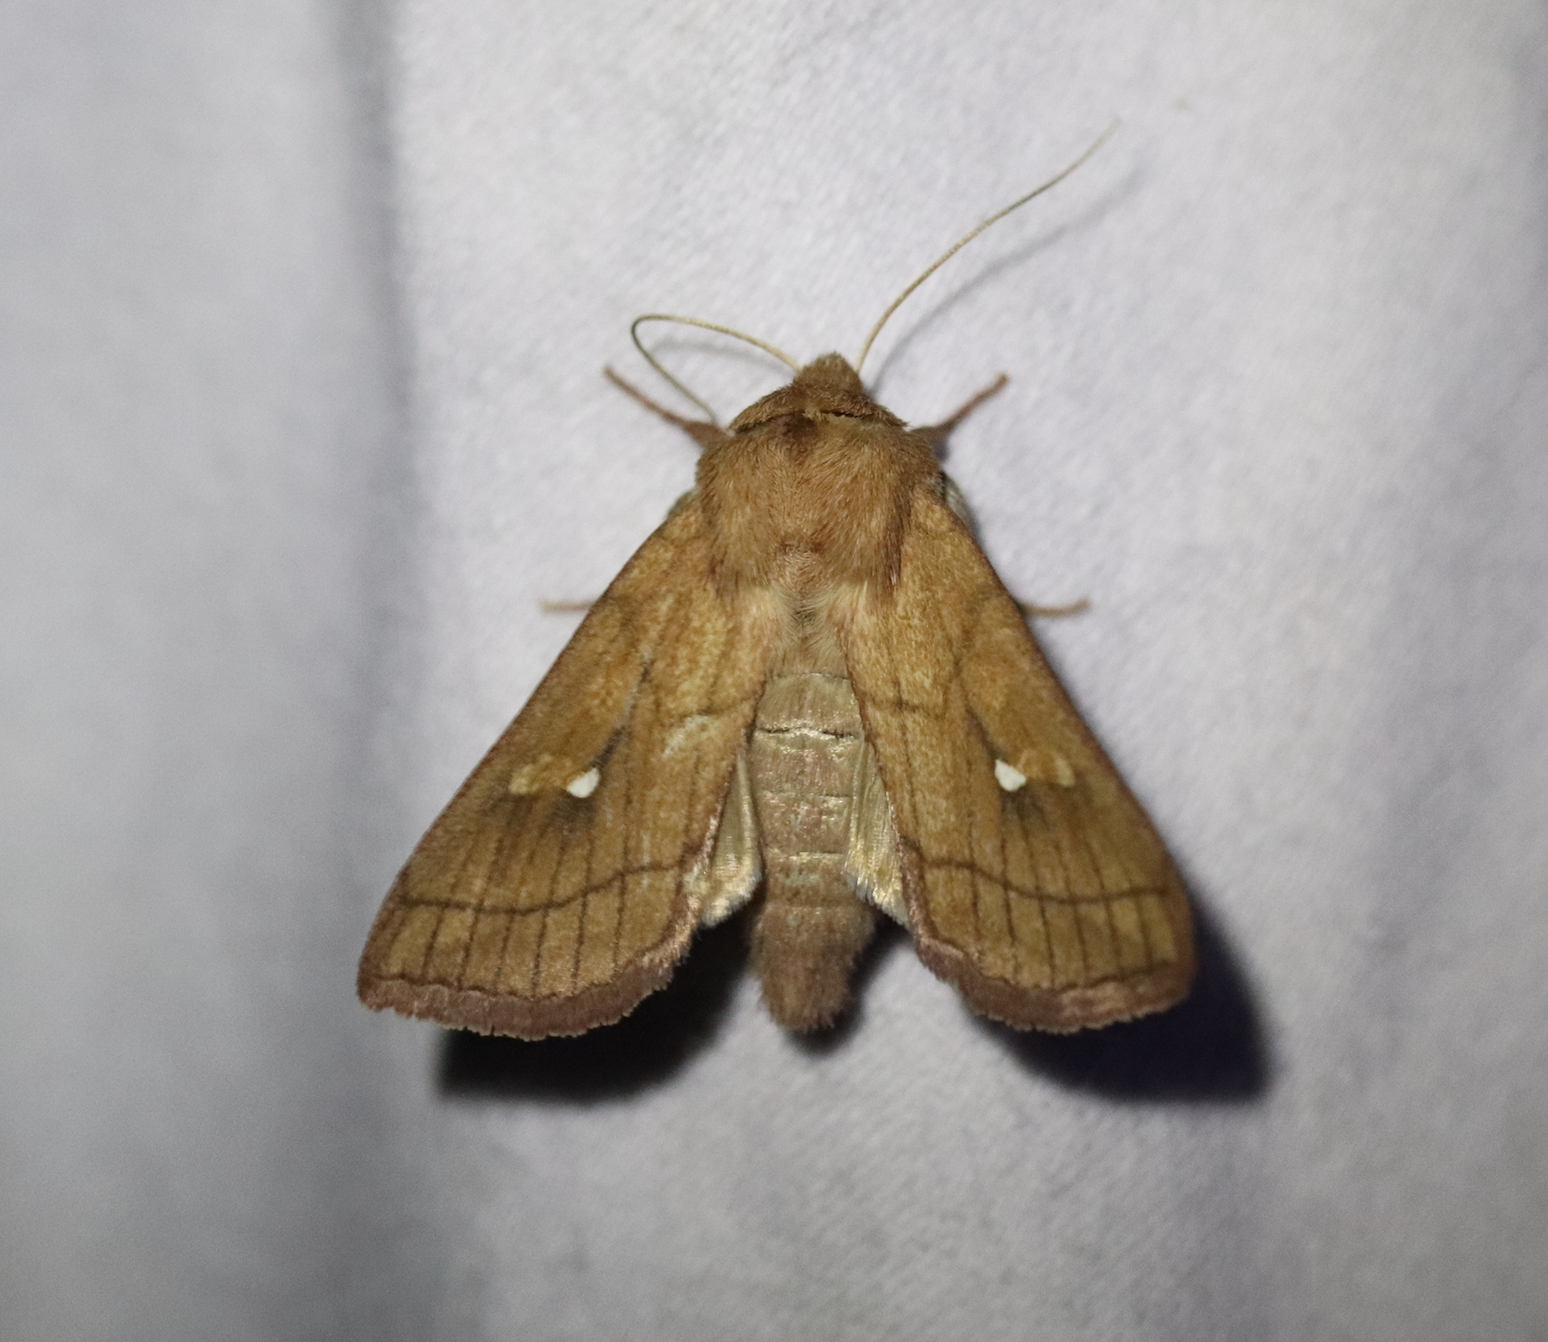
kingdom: Animalia
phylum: Arthropoda
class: Insecta
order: Lepidoptera
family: Noctuidae
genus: Mythimna
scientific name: Mythimna conigera
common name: Brown-line bright-eye
